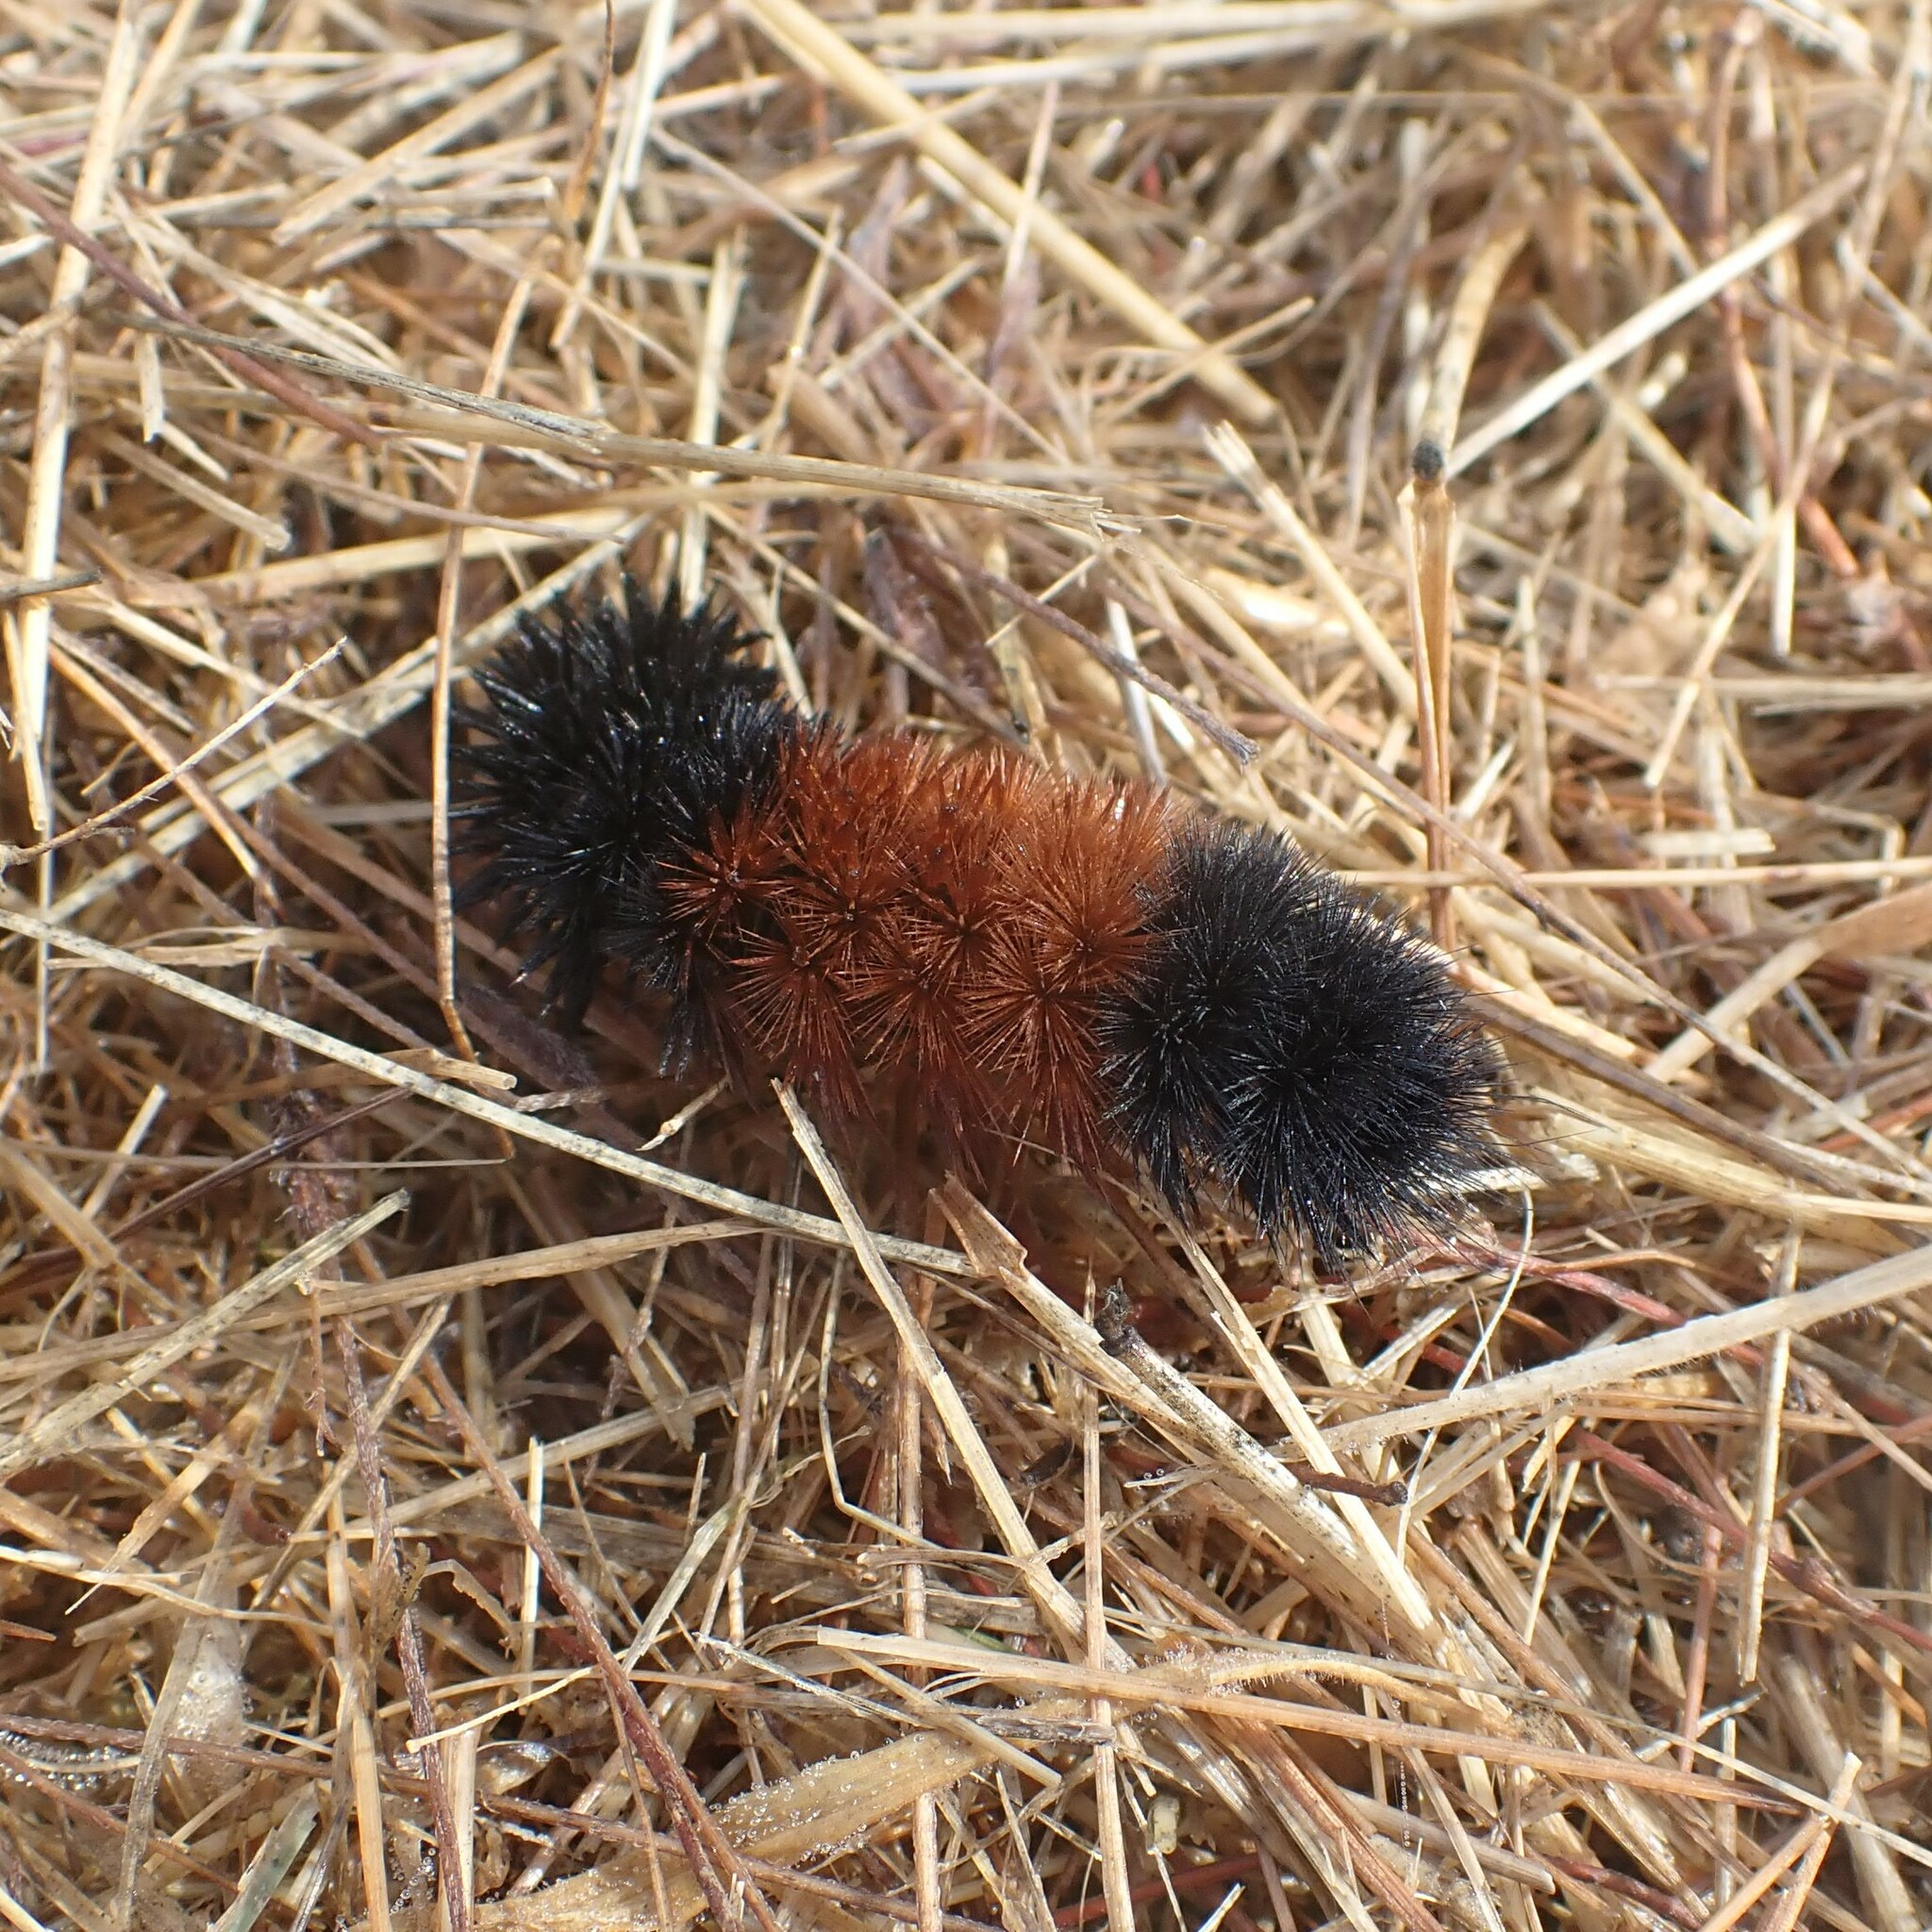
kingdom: Animalia
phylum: Arthropoda
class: Insecta
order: Lepidoptera
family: Erebidae
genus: Pyrrharctia
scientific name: Pyrrharctia isabella
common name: Isabella tiger moth
